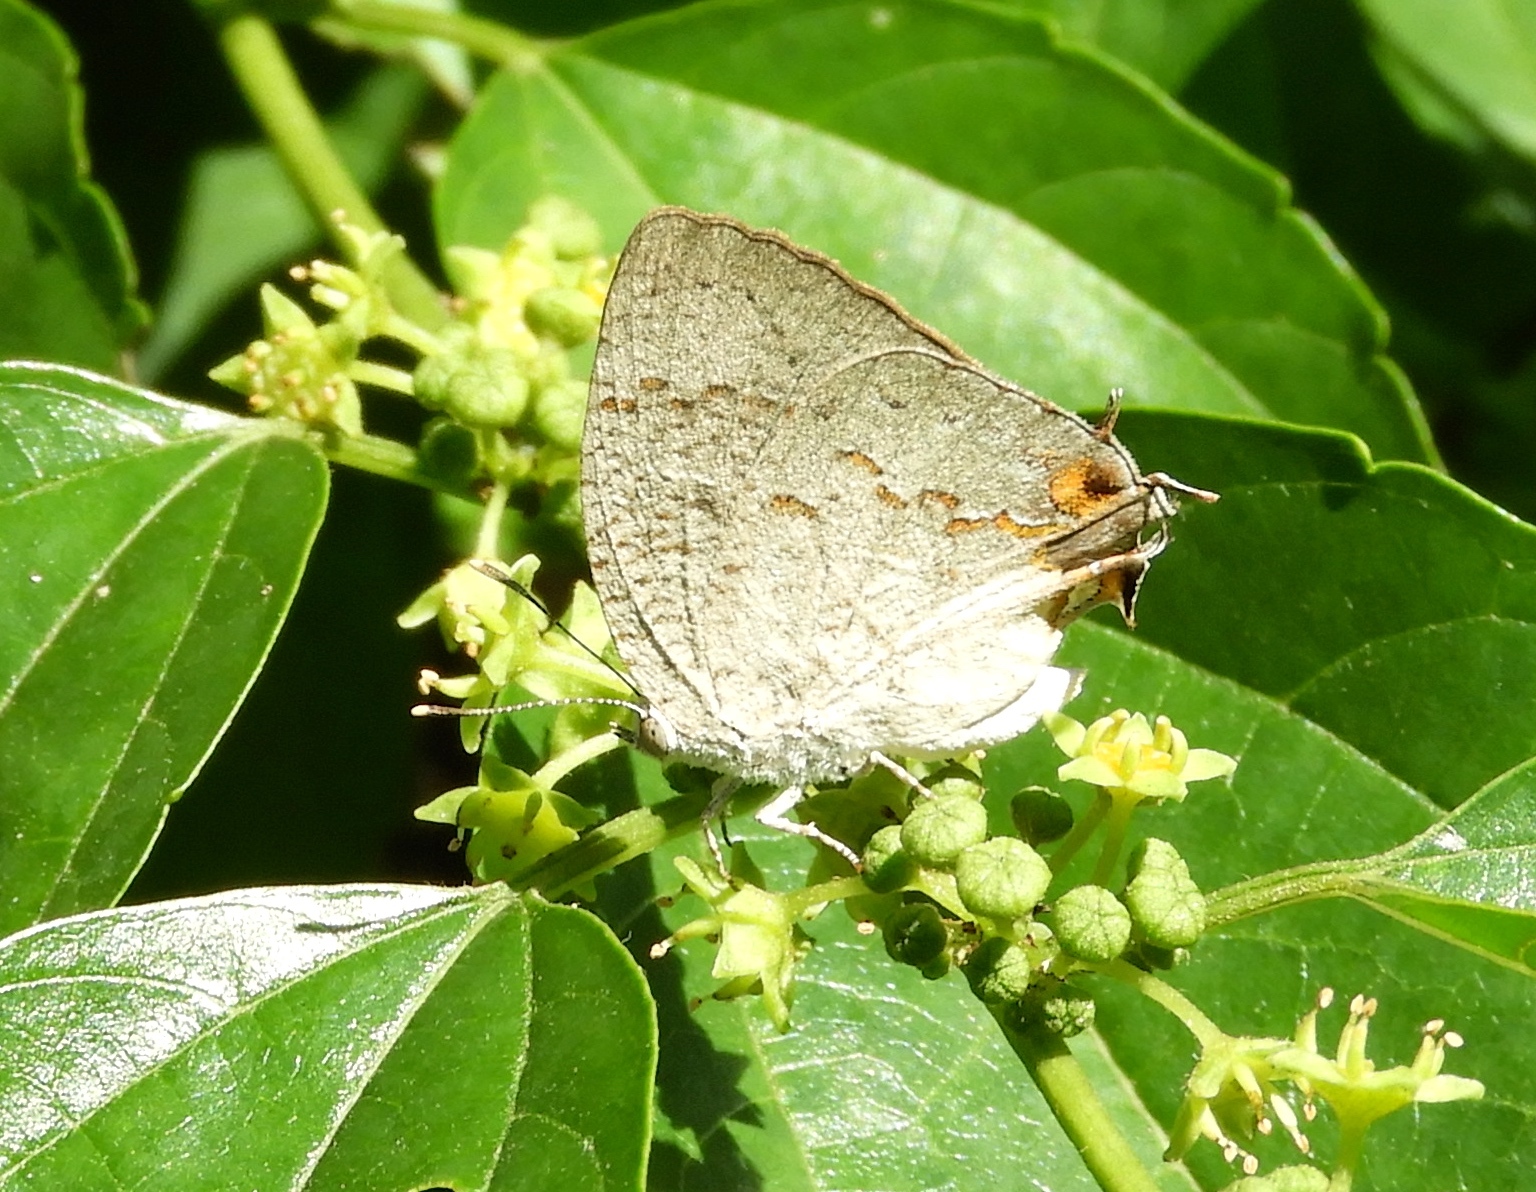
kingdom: Animalia
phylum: Arthropoda
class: Insecta
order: Lepidoptera
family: Lycaenidae
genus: Hypostrymon
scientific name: Hypostrymon critola
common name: Sonoran hairstreak
